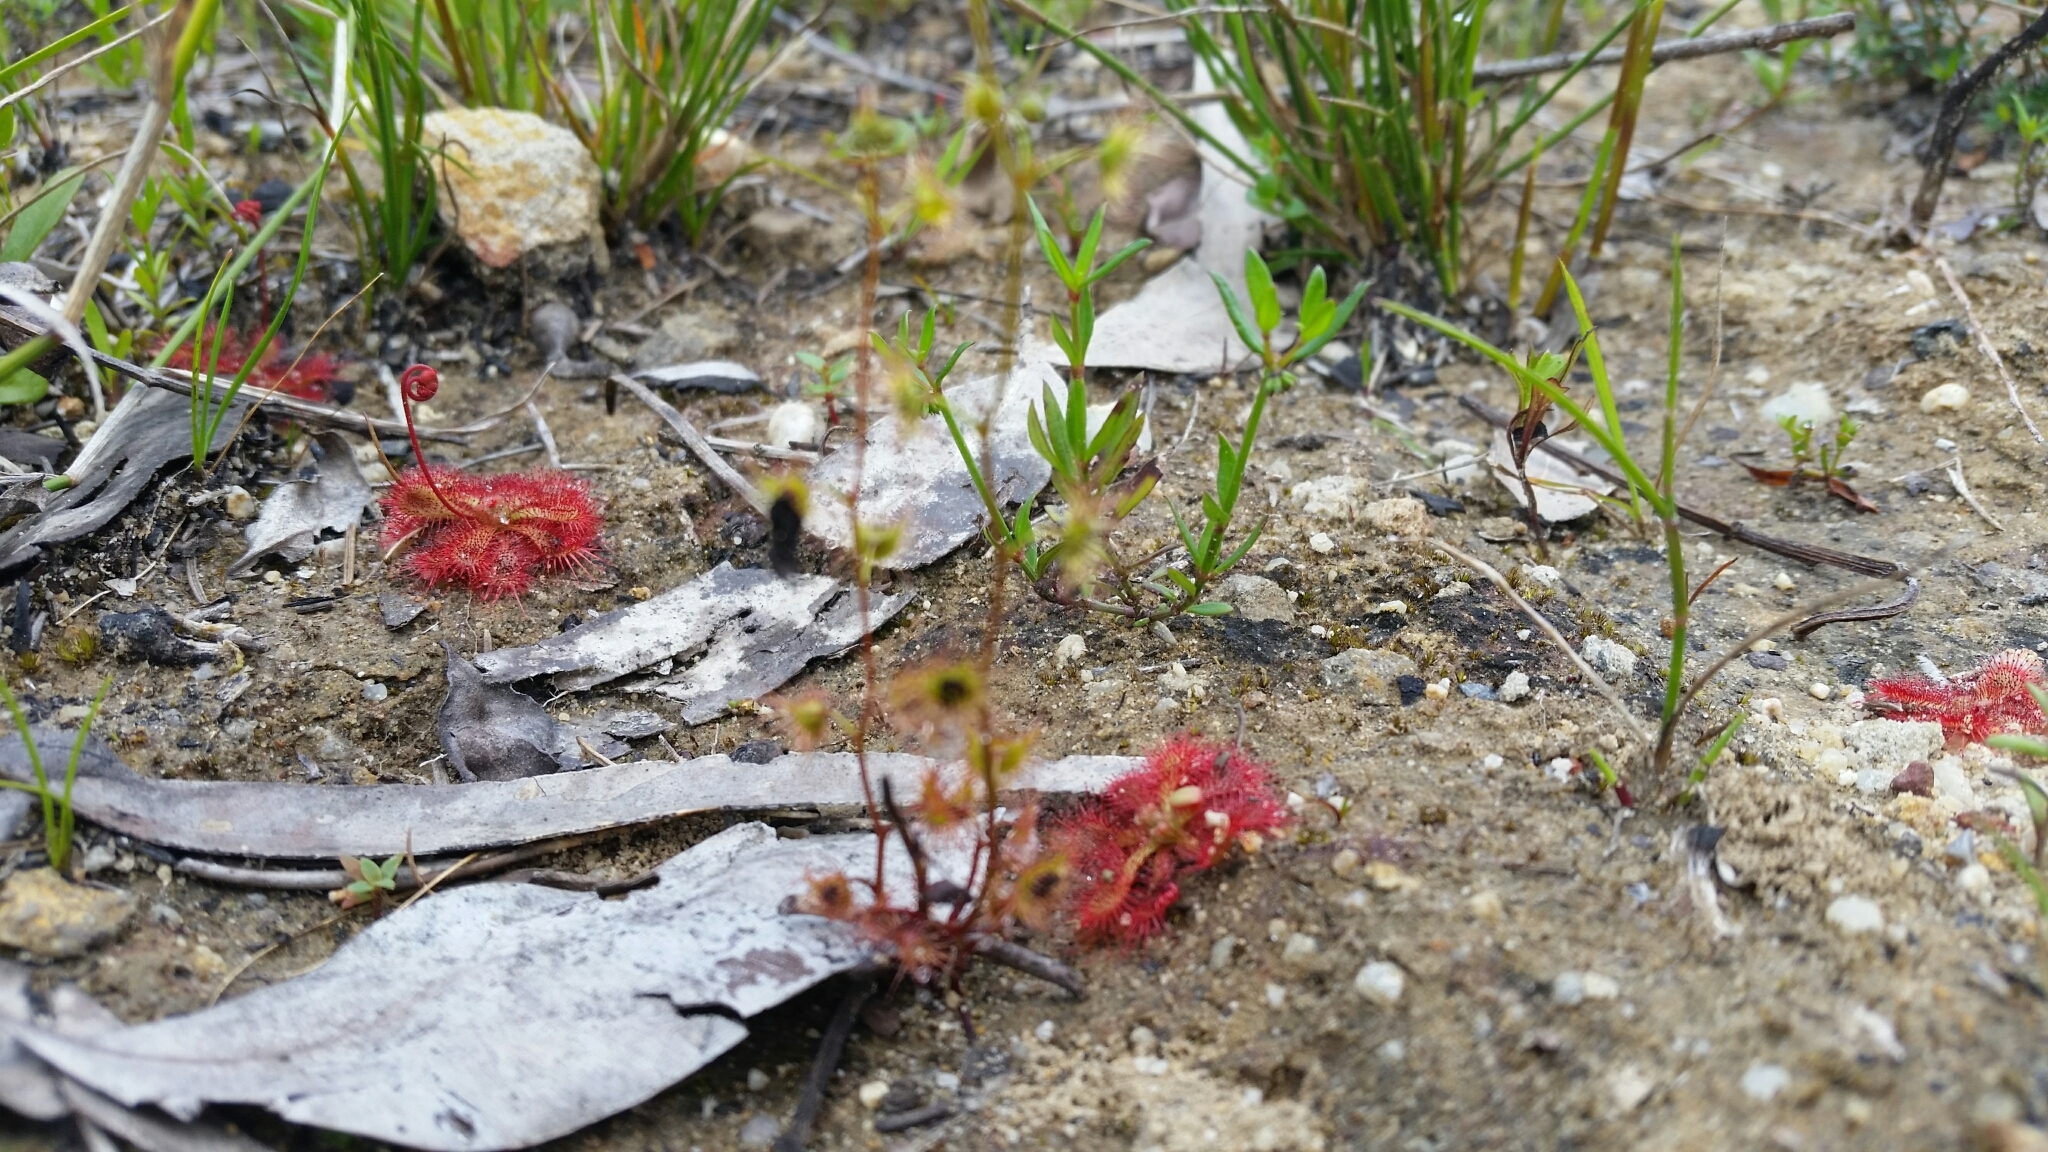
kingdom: Plantae
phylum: Tracheophyta
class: Magnoliopsida
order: Caryophyllales
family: Droseraceae
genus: Drosera
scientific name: Drosera spatulata
